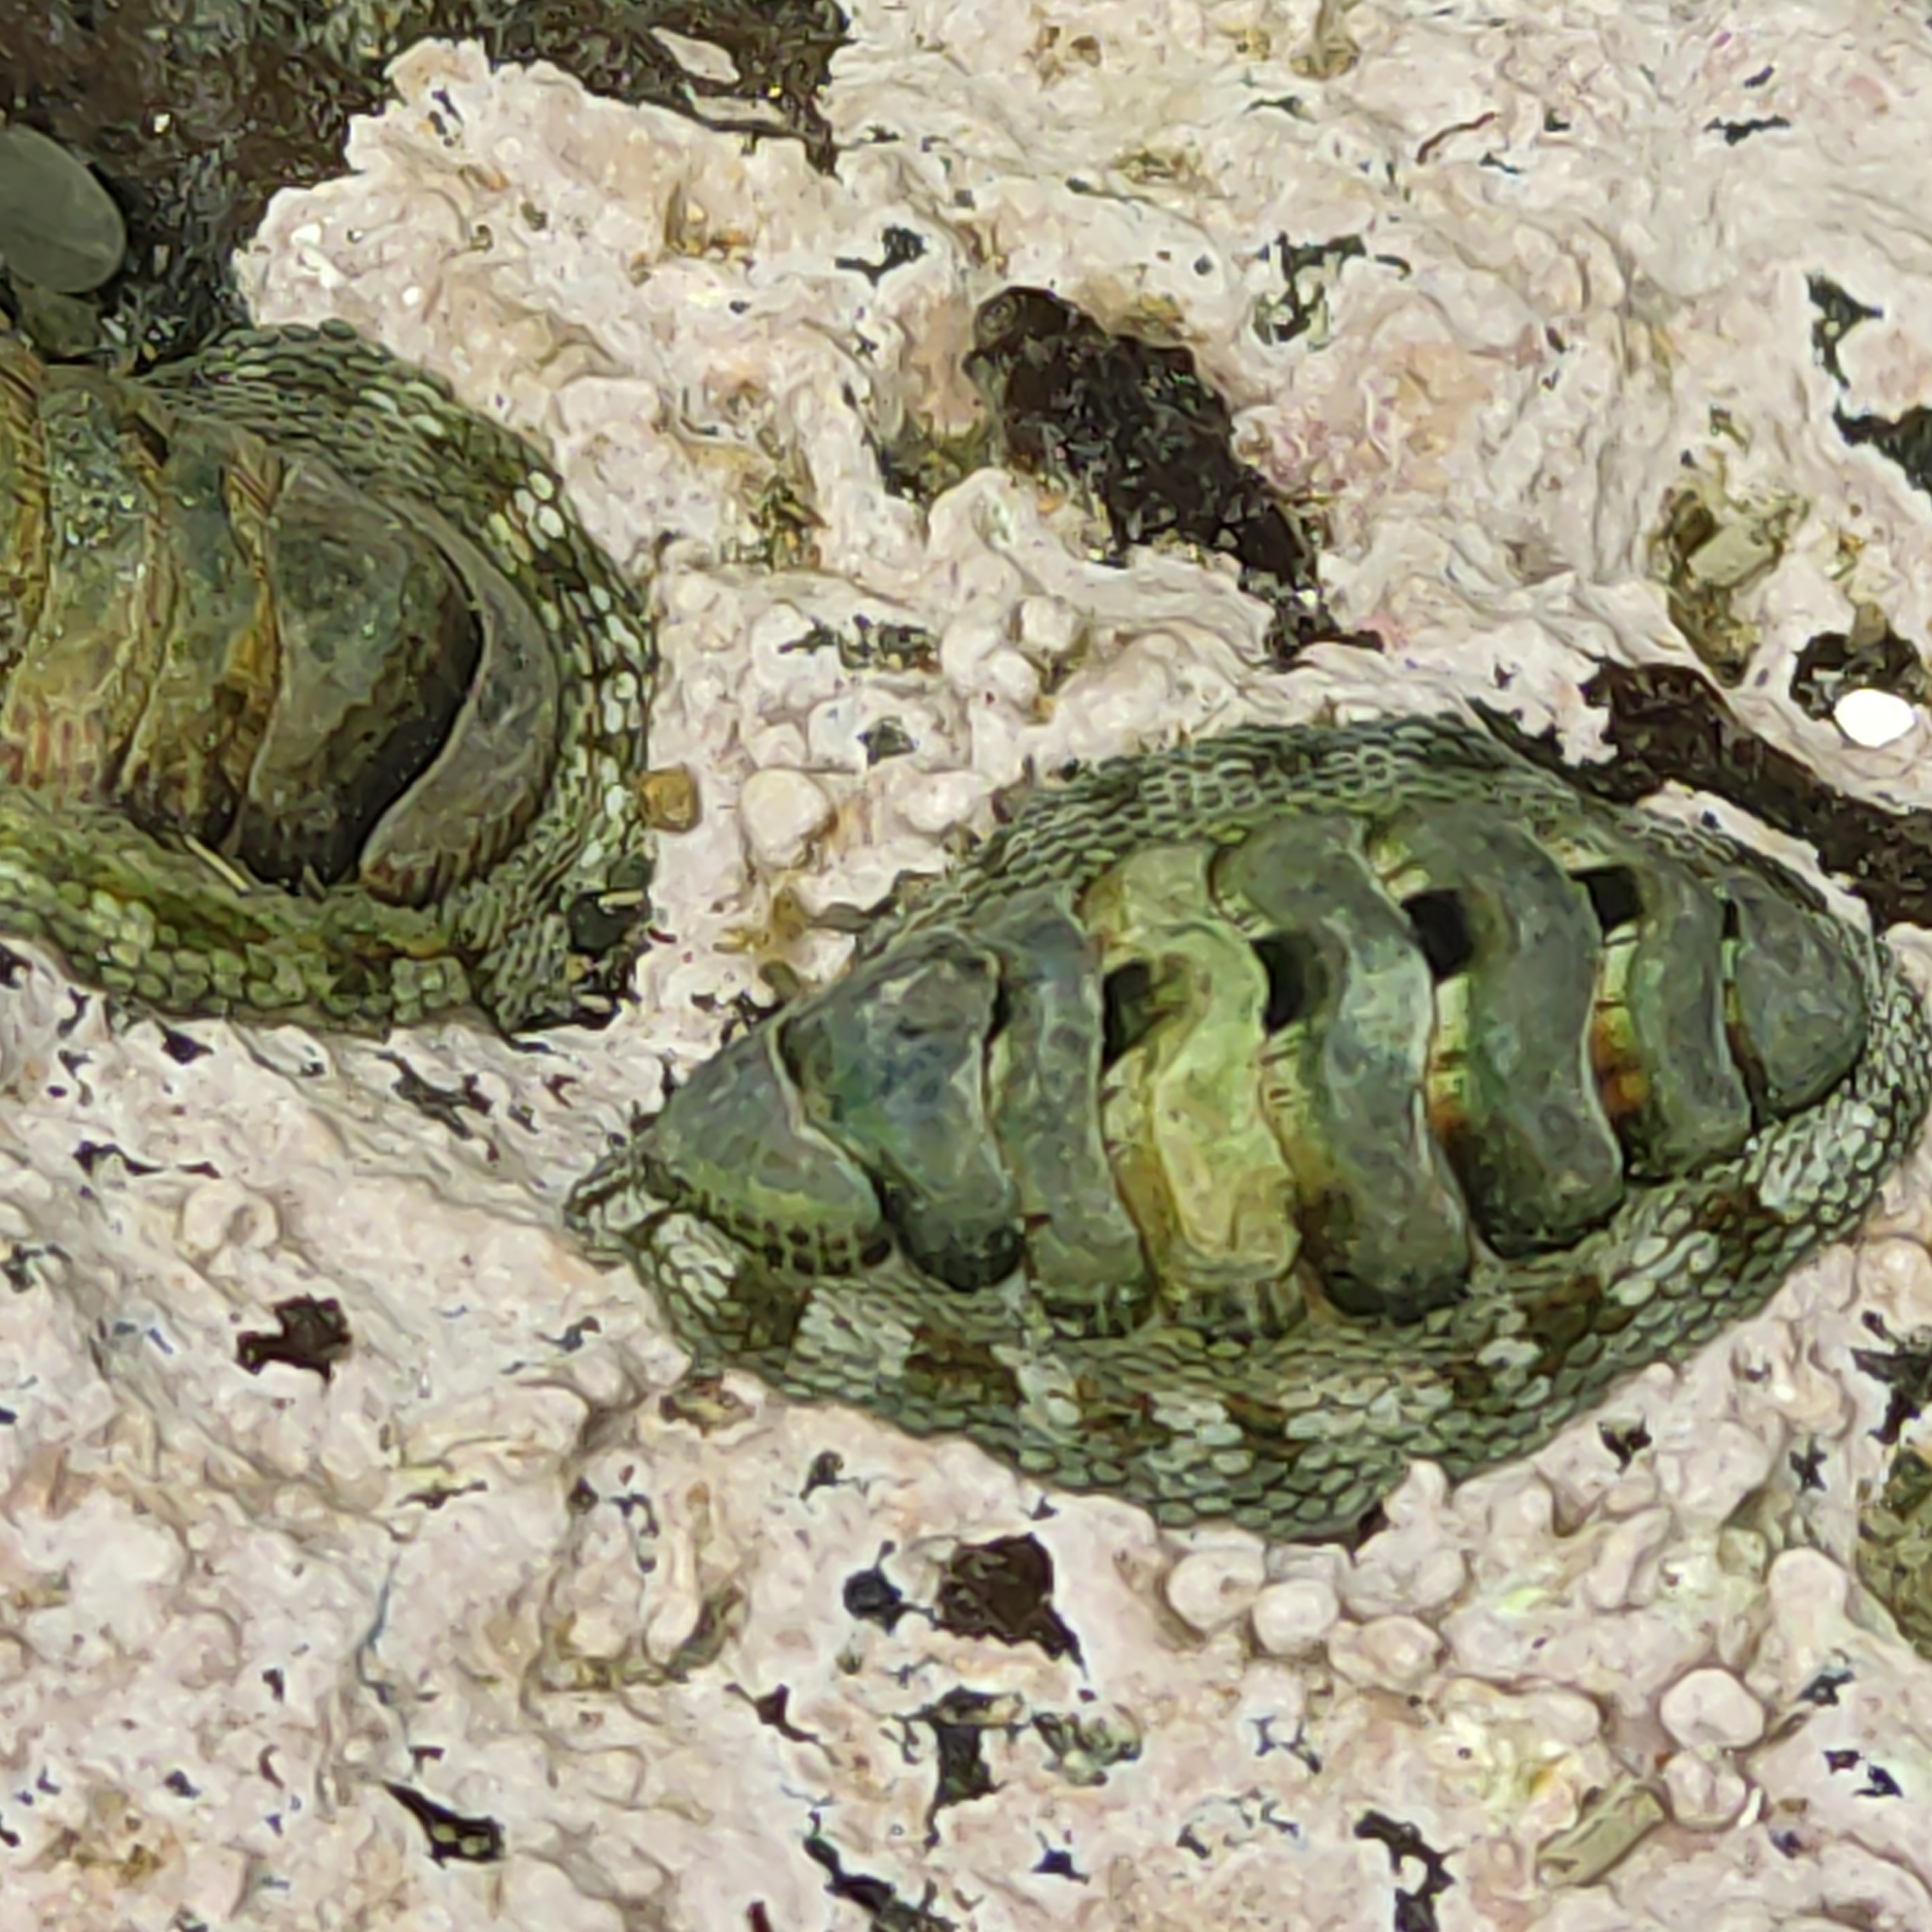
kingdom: Animalia
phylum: Mollusca
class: Polyplacophora
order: Chitonida
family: Chitonidae
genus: Sypharochiton
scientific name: Sypharochiton pelliserpentis
